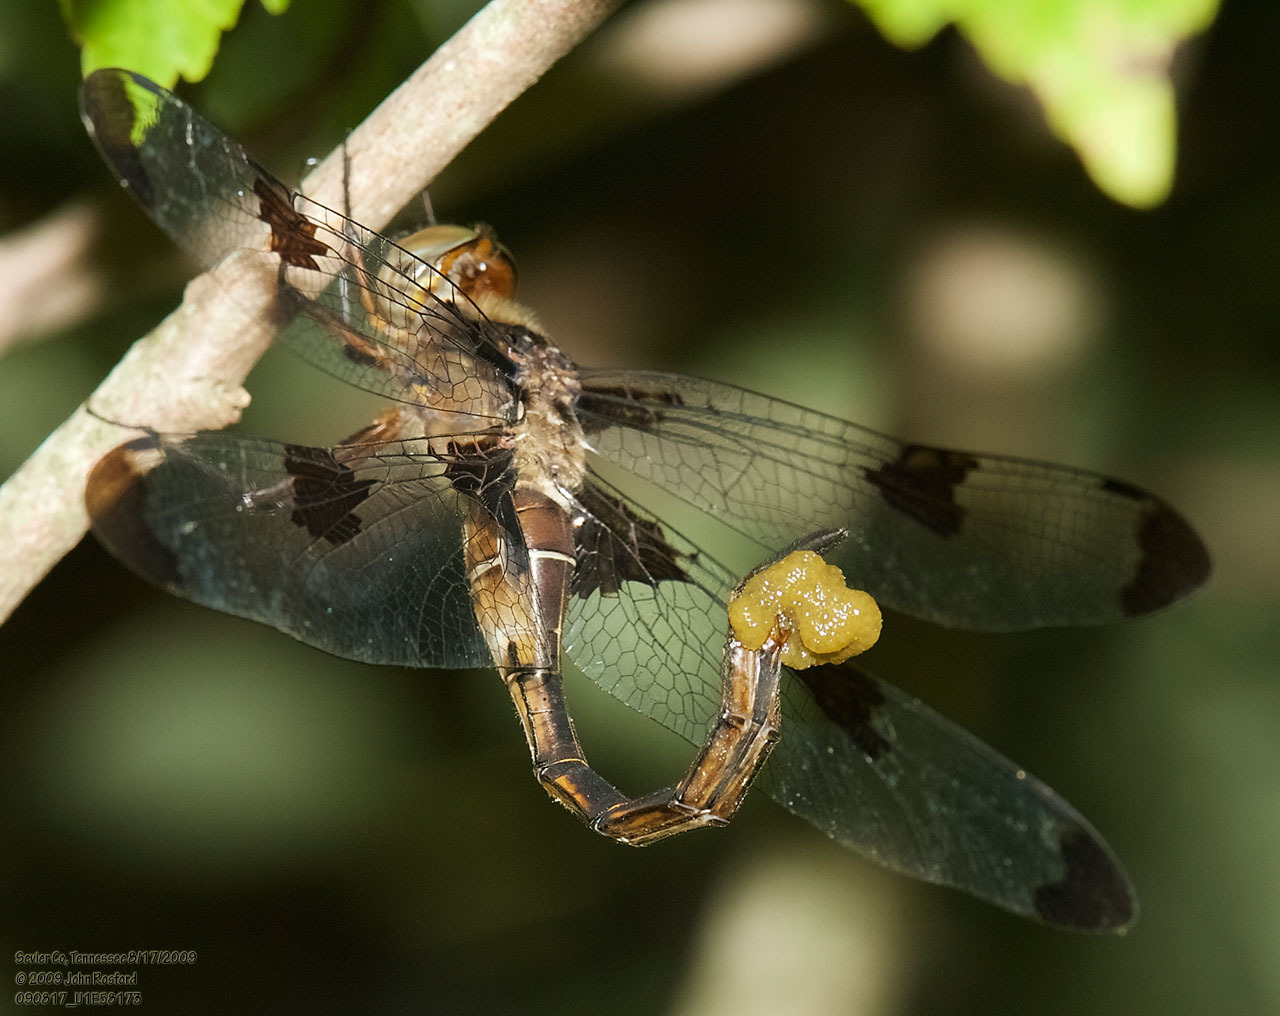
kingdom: Animalia
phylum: Arthropoda
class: Insecta
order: Odonata
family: Corduliidae
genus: Epitheca
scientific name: Epitheca princeps
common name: Prince baskettail
